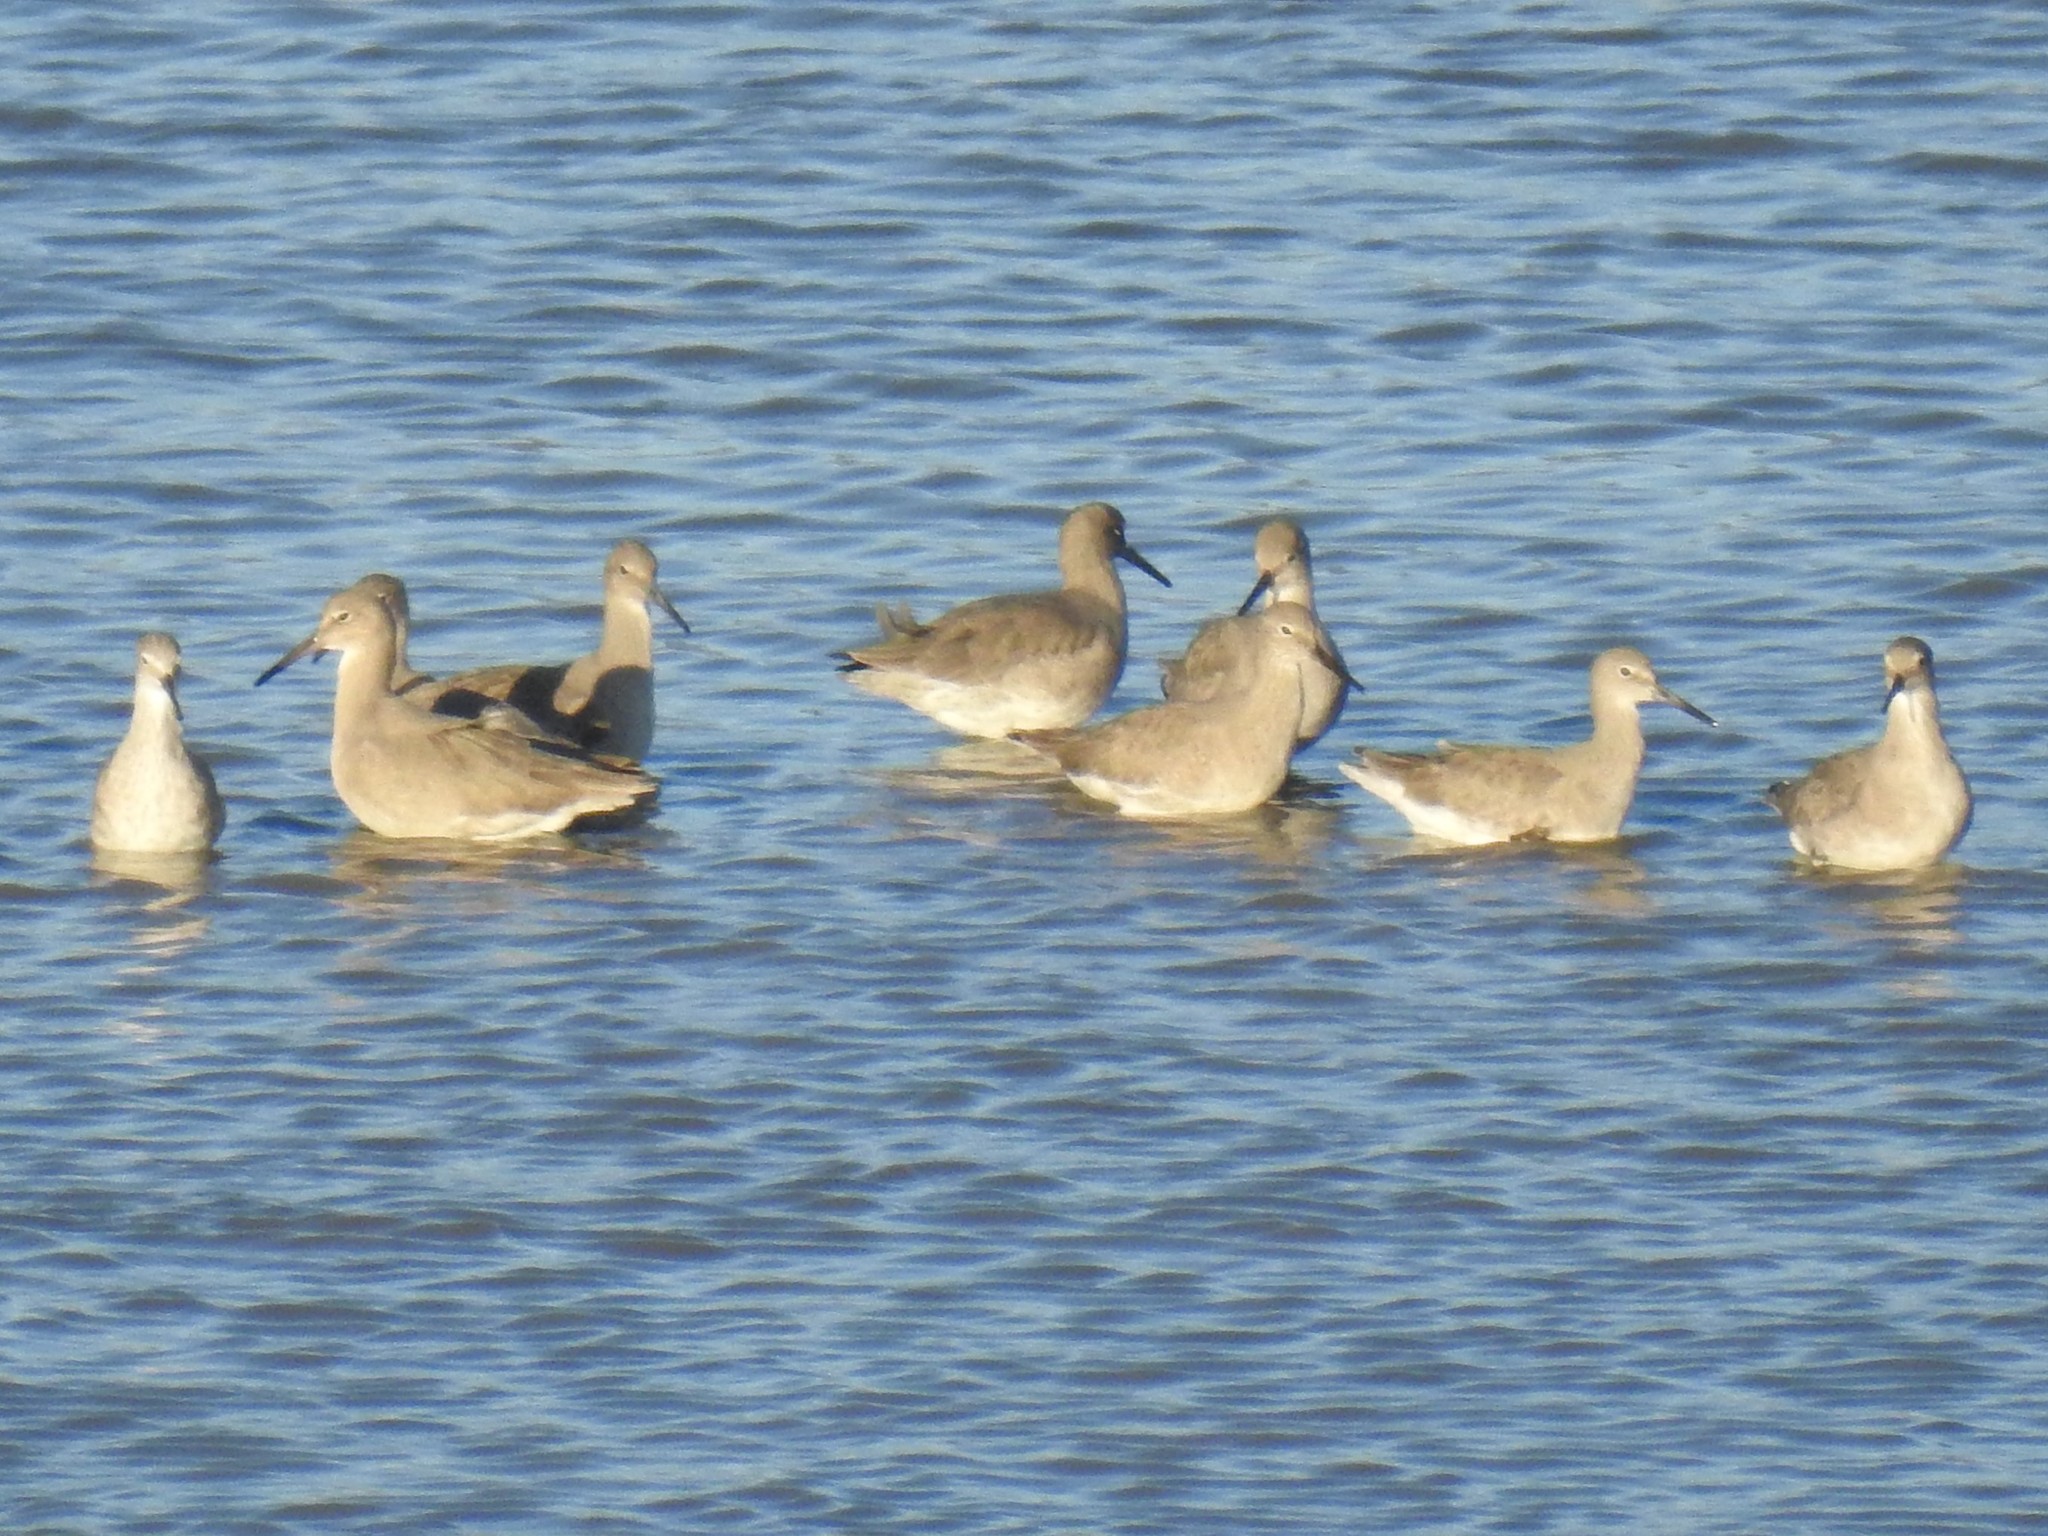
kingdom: Animalia
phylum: Chordata
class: Aves
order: Charadriiformes
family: Scolopacidae
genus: Tringa
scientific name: Tringa semipalmata
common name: Willet
